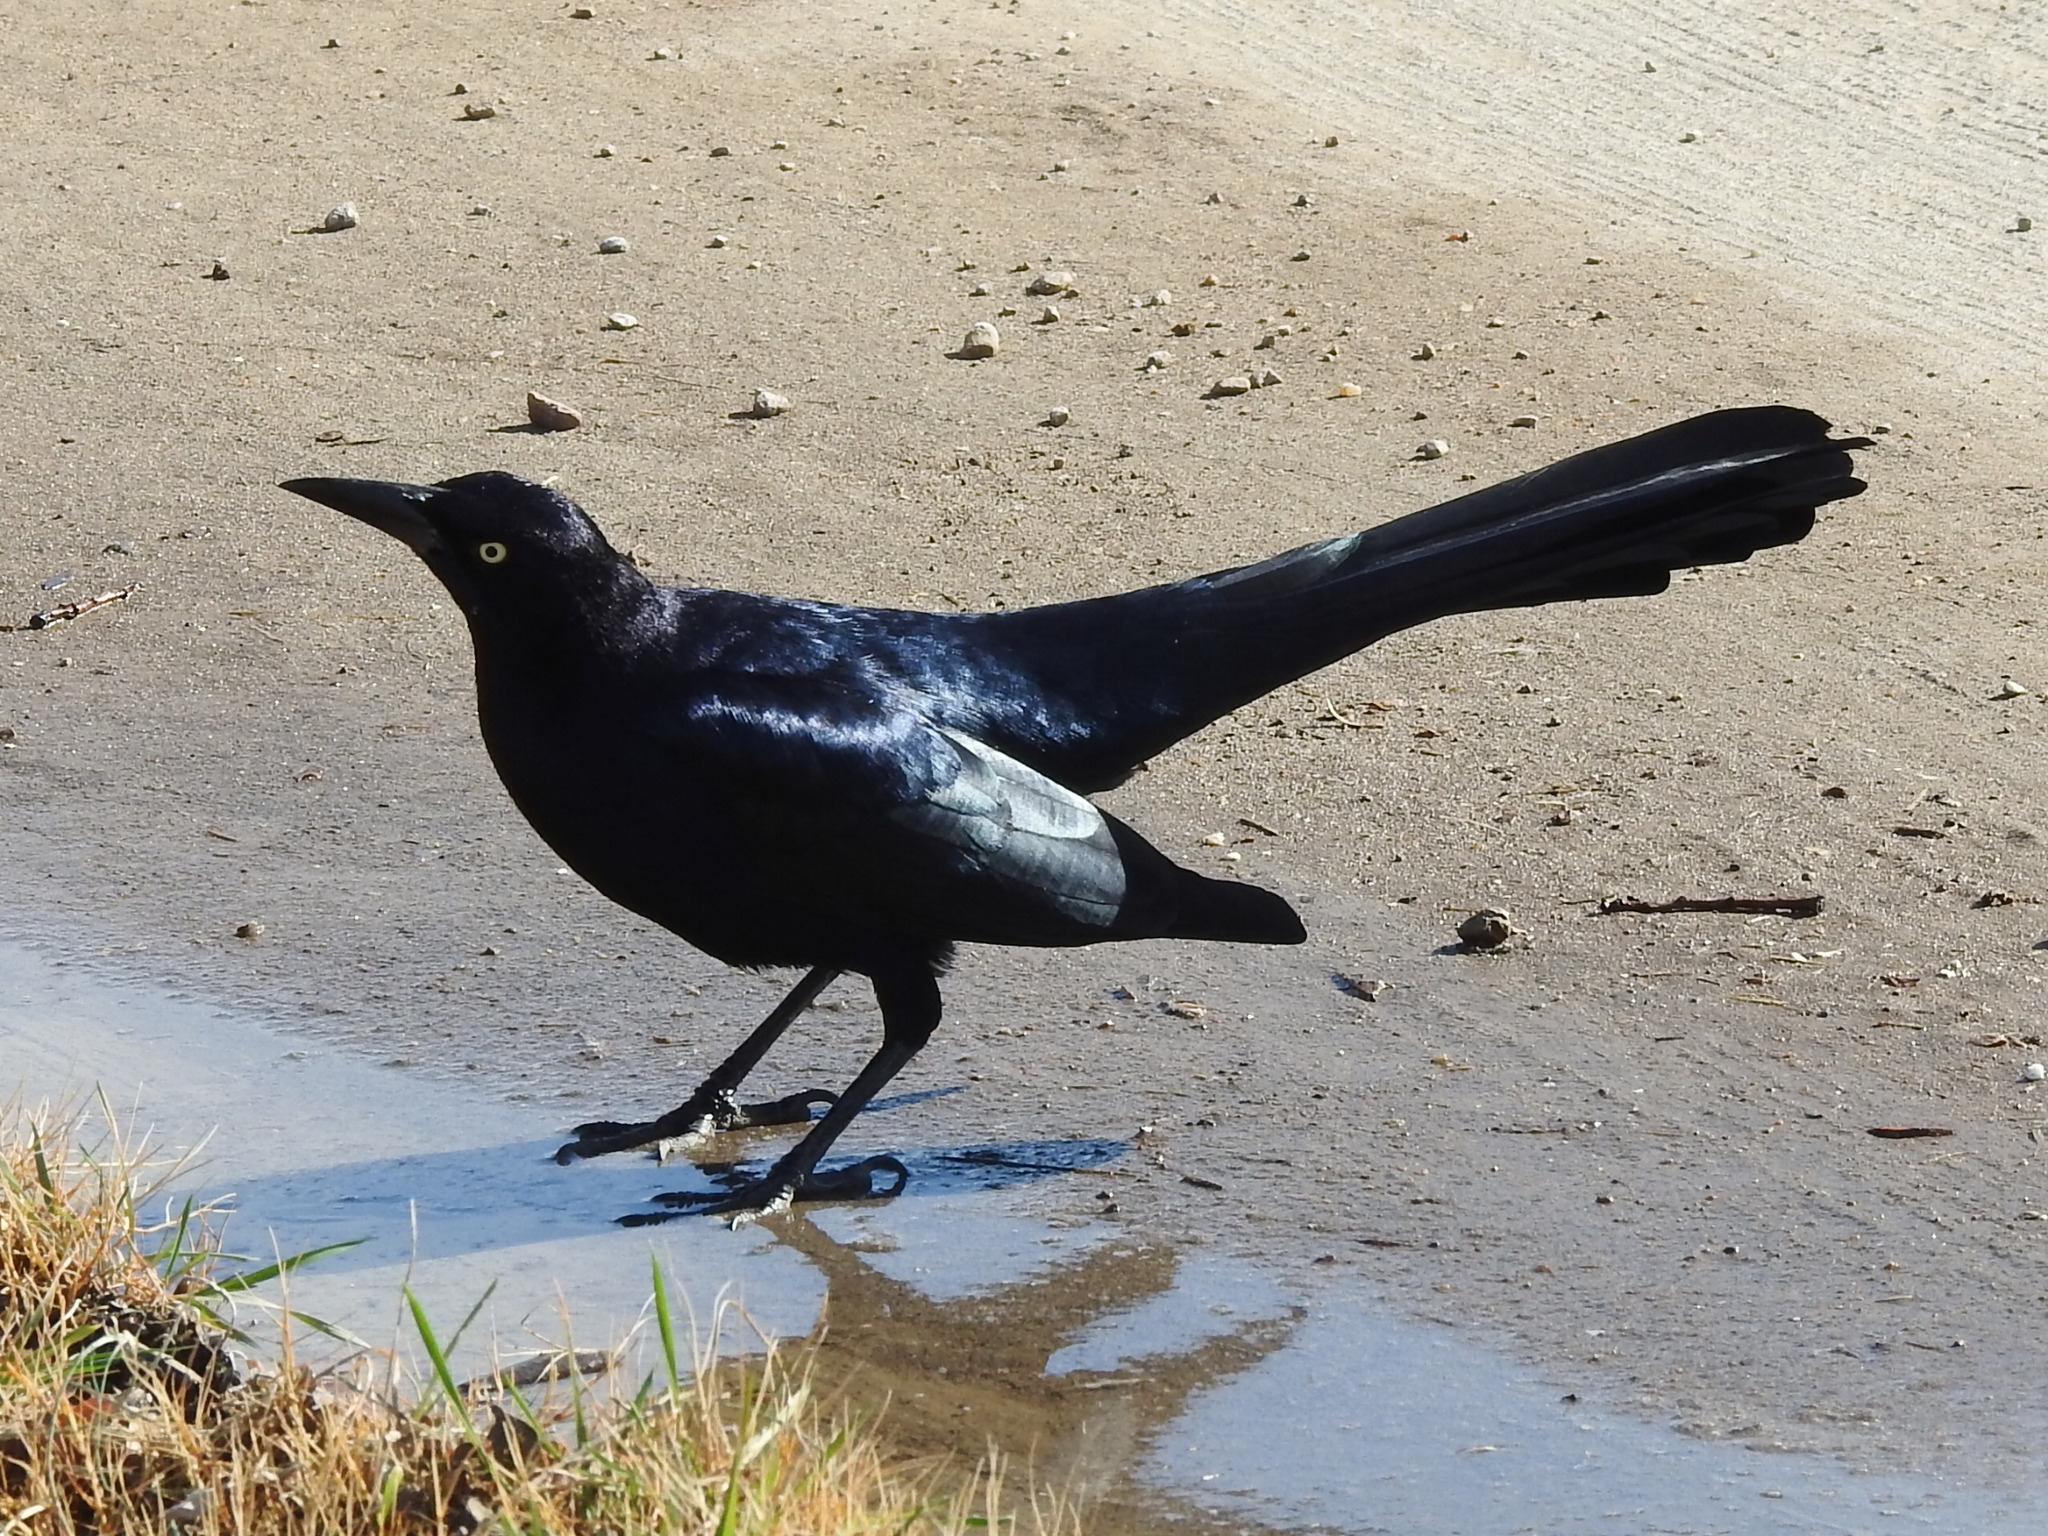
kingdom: Animalia
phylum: Chordata
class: Aves
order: Passeriformes
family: Icteridae
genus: Quiscalus
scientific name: Quiscalus mexicanus
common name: Great-tailed grackle
